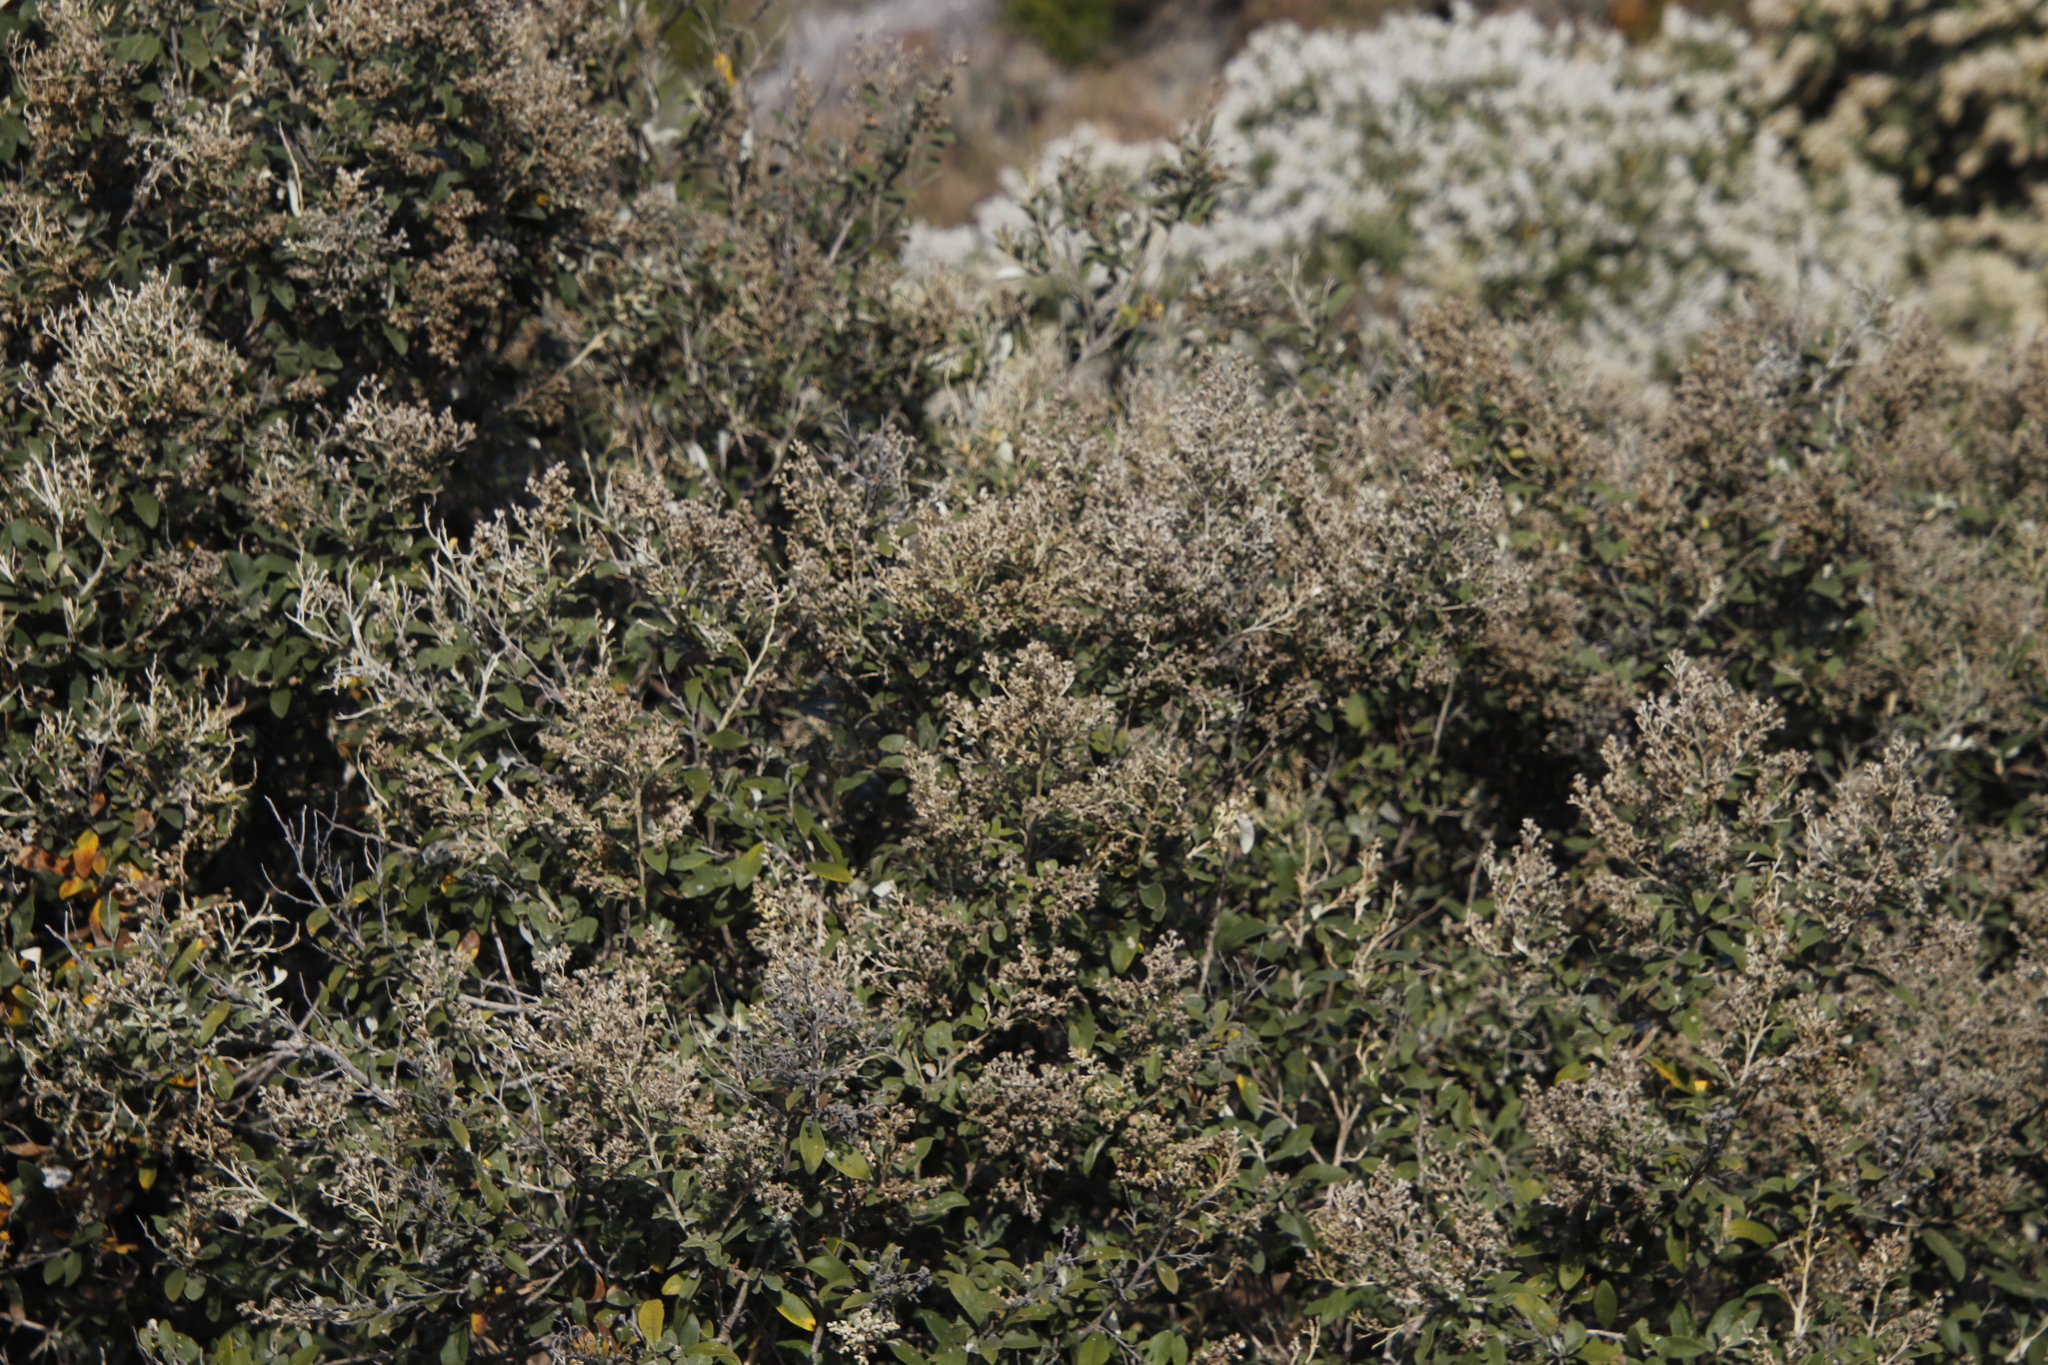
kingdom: Plantae
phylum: Tracheophyta
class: Magnoliopsida
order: Asterales
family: Asteraceae
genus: Tarchonanthus
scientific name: Tarchonanthus littoralis
